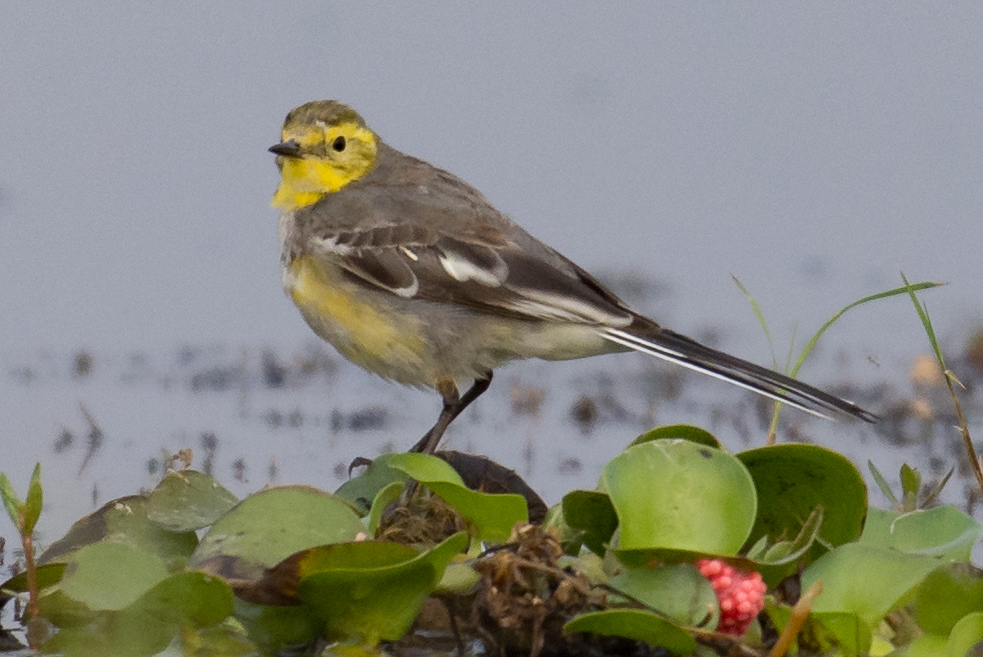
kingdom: Animalia
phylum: Chordata
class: Aves
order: Passeriformes
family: Motacillidae
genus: Motacilla
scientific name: Motacilla citreola
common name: Citrine wagtail
